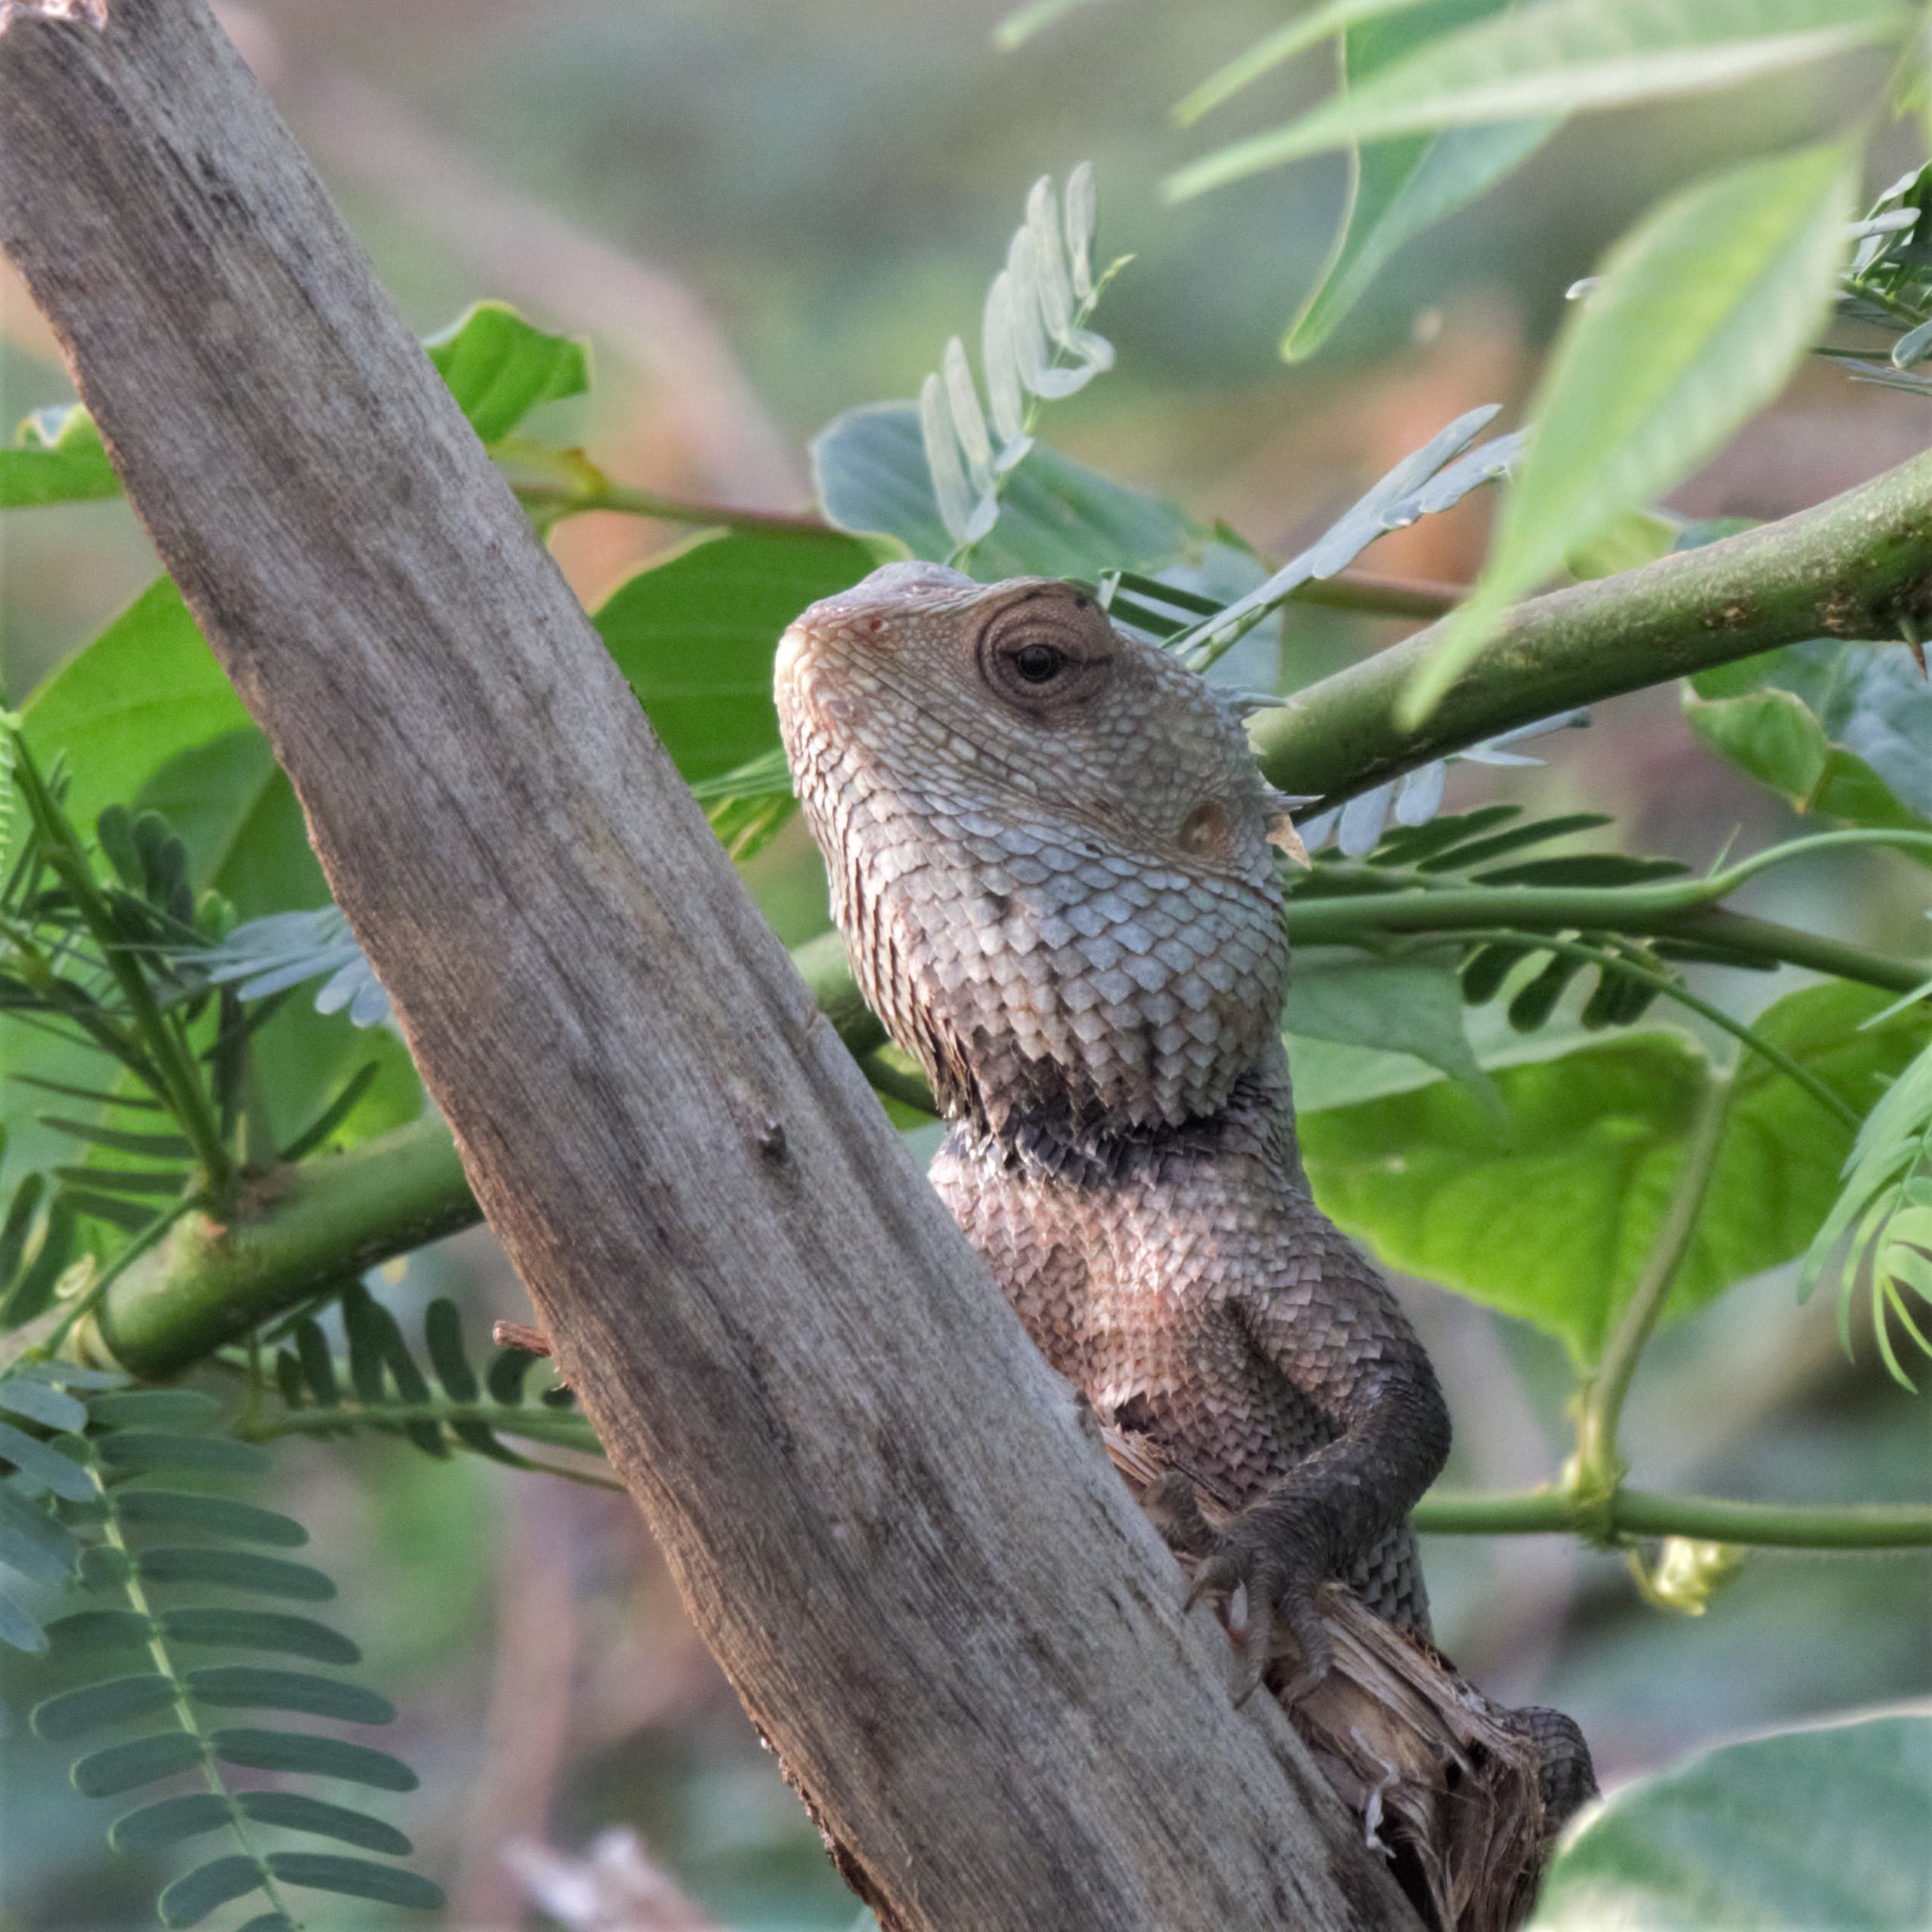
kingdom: Animalia
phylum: Chordata
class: Squamata
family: Agamidae
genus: Calotes
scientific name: Calotes versicolor
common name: Oriental garden lizard
